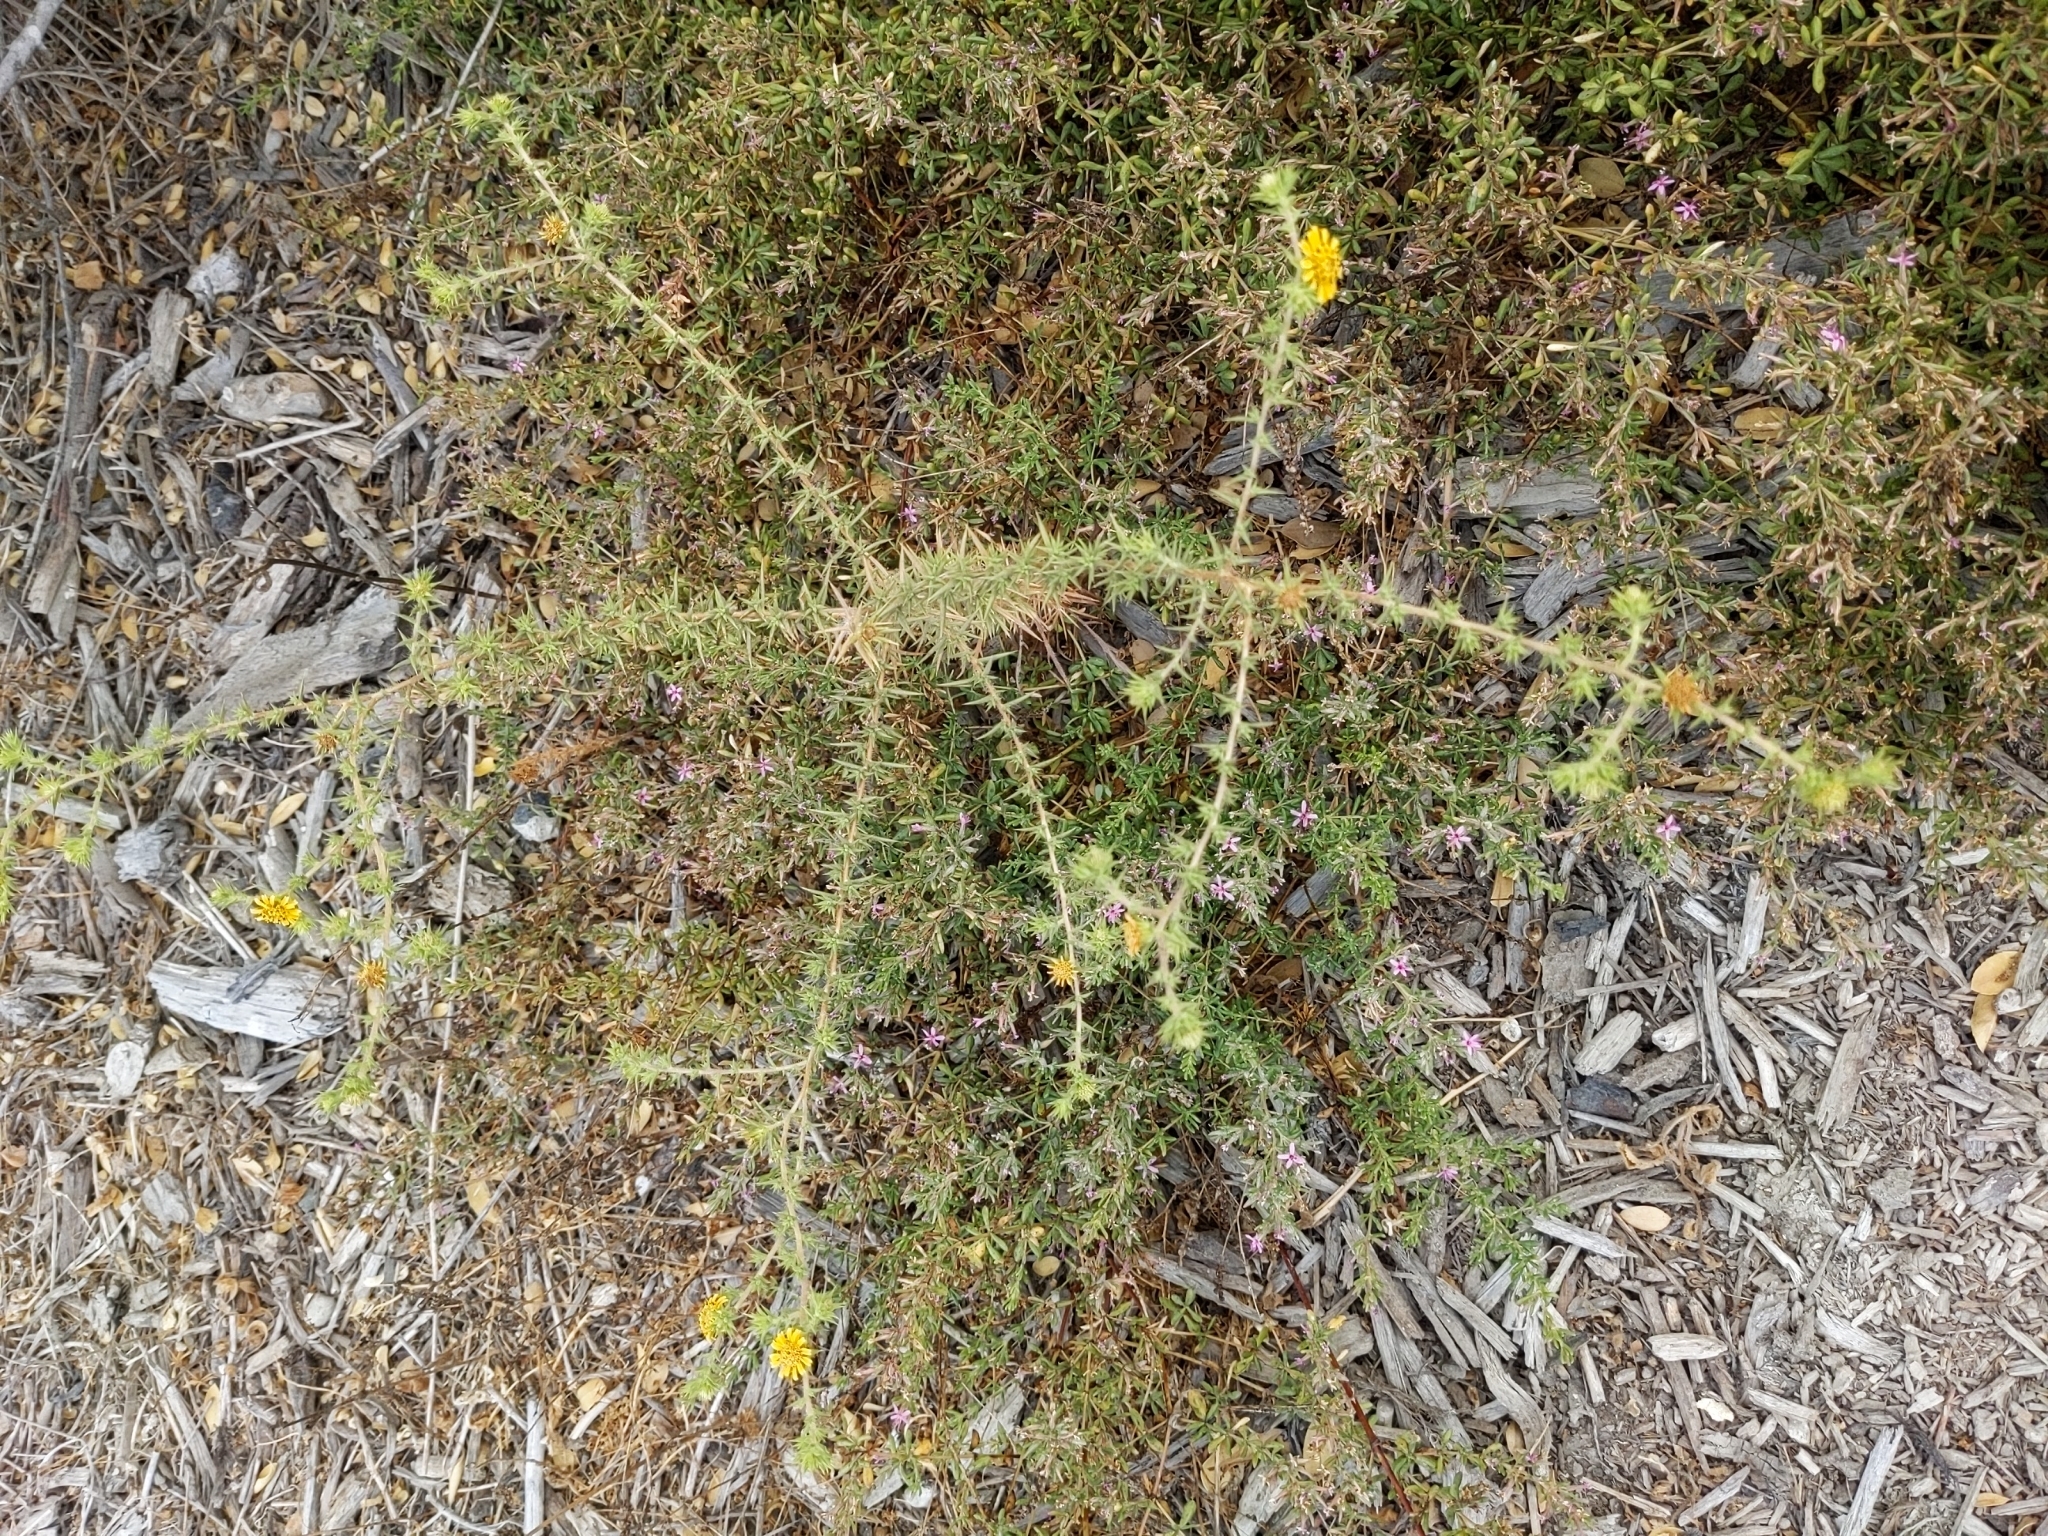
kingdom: Plantae
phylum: Tracheophyta
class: Magnoliopsida
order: Asterales
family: Asteraceae
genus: Centromadia
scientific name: Centromadia parryi
